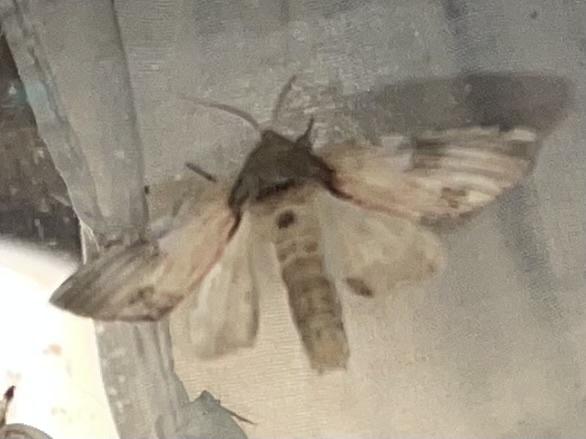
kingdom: Animalia
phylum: Arthropoda
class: Insecta
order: Lepidoptera
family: Notodontidae
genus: Schizura
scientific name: Schizura
